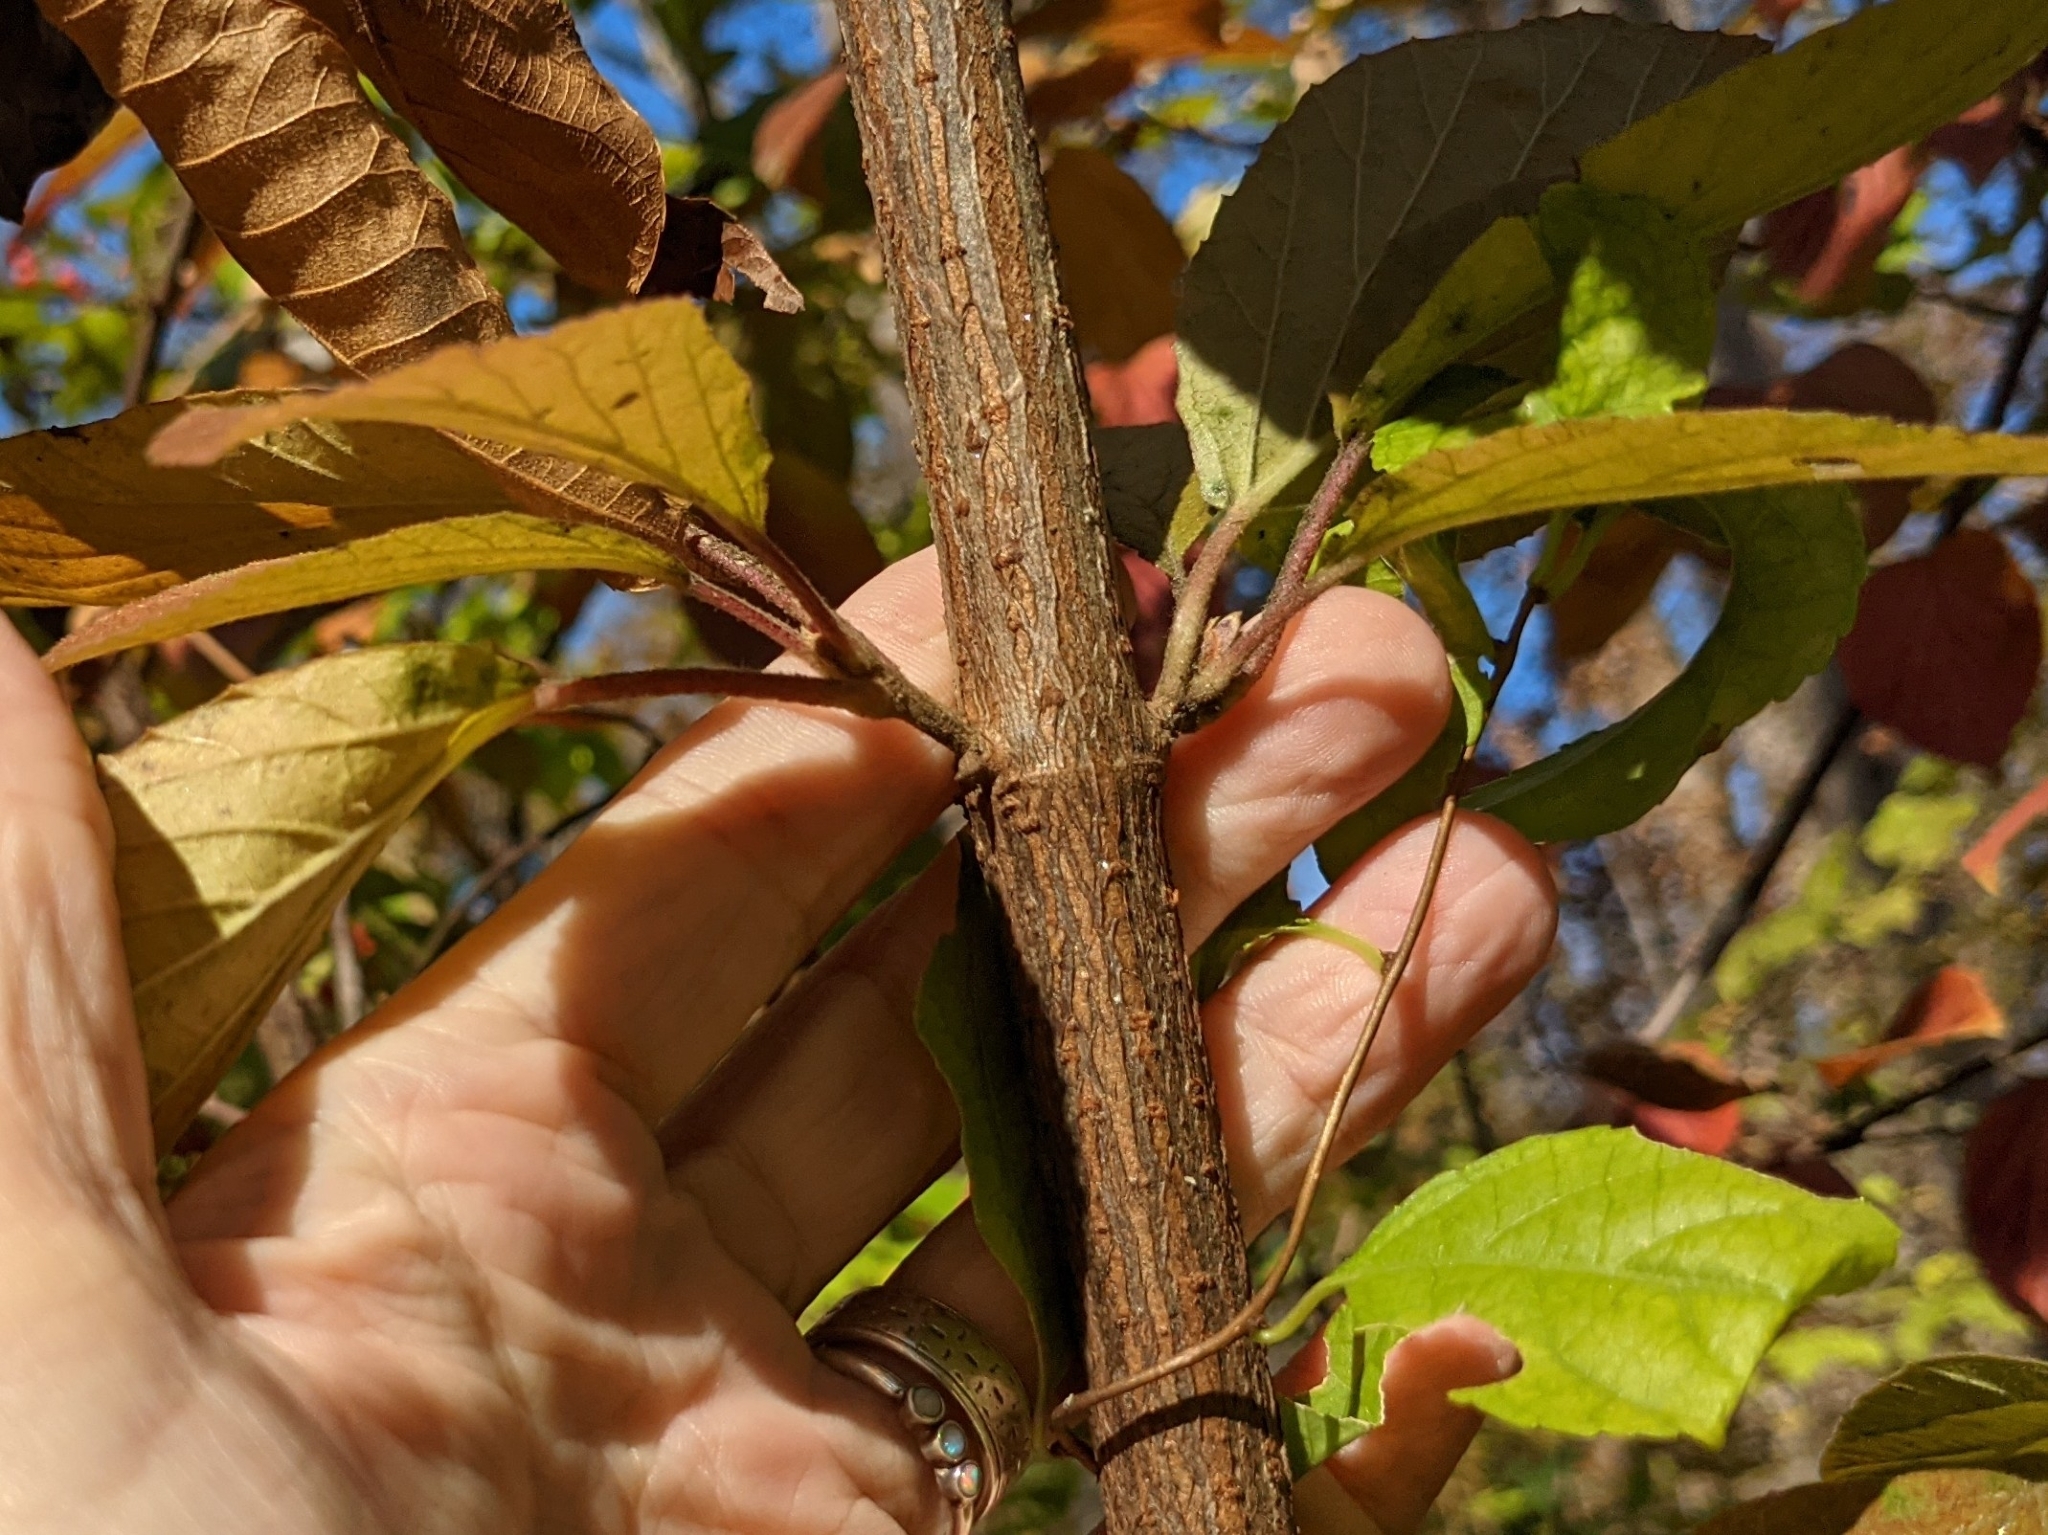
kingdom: Plantae
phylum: Tracheophyta
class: Magnoliopsida
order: Dipsacales
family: Viburnaceae
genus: Viburnum
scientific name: Viburnum dilatatum
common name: Linden arrowwood
